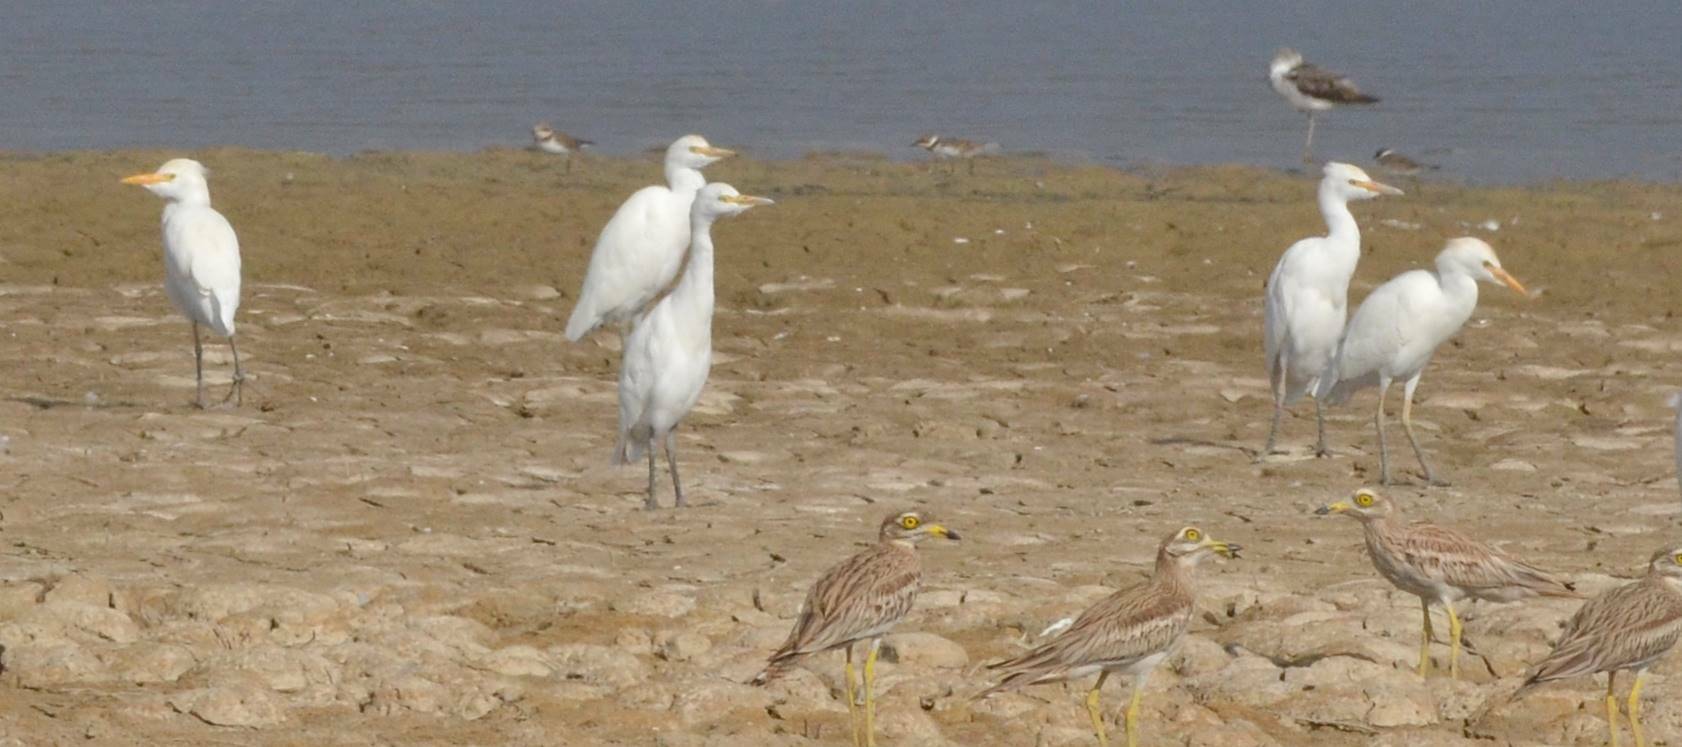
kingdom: Animalia
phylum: Chordata
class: Aves
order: Pelecaniformes
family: Ardeidae
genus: Bubulcus
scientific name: Bubulcus ibis
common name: Cattle egret
